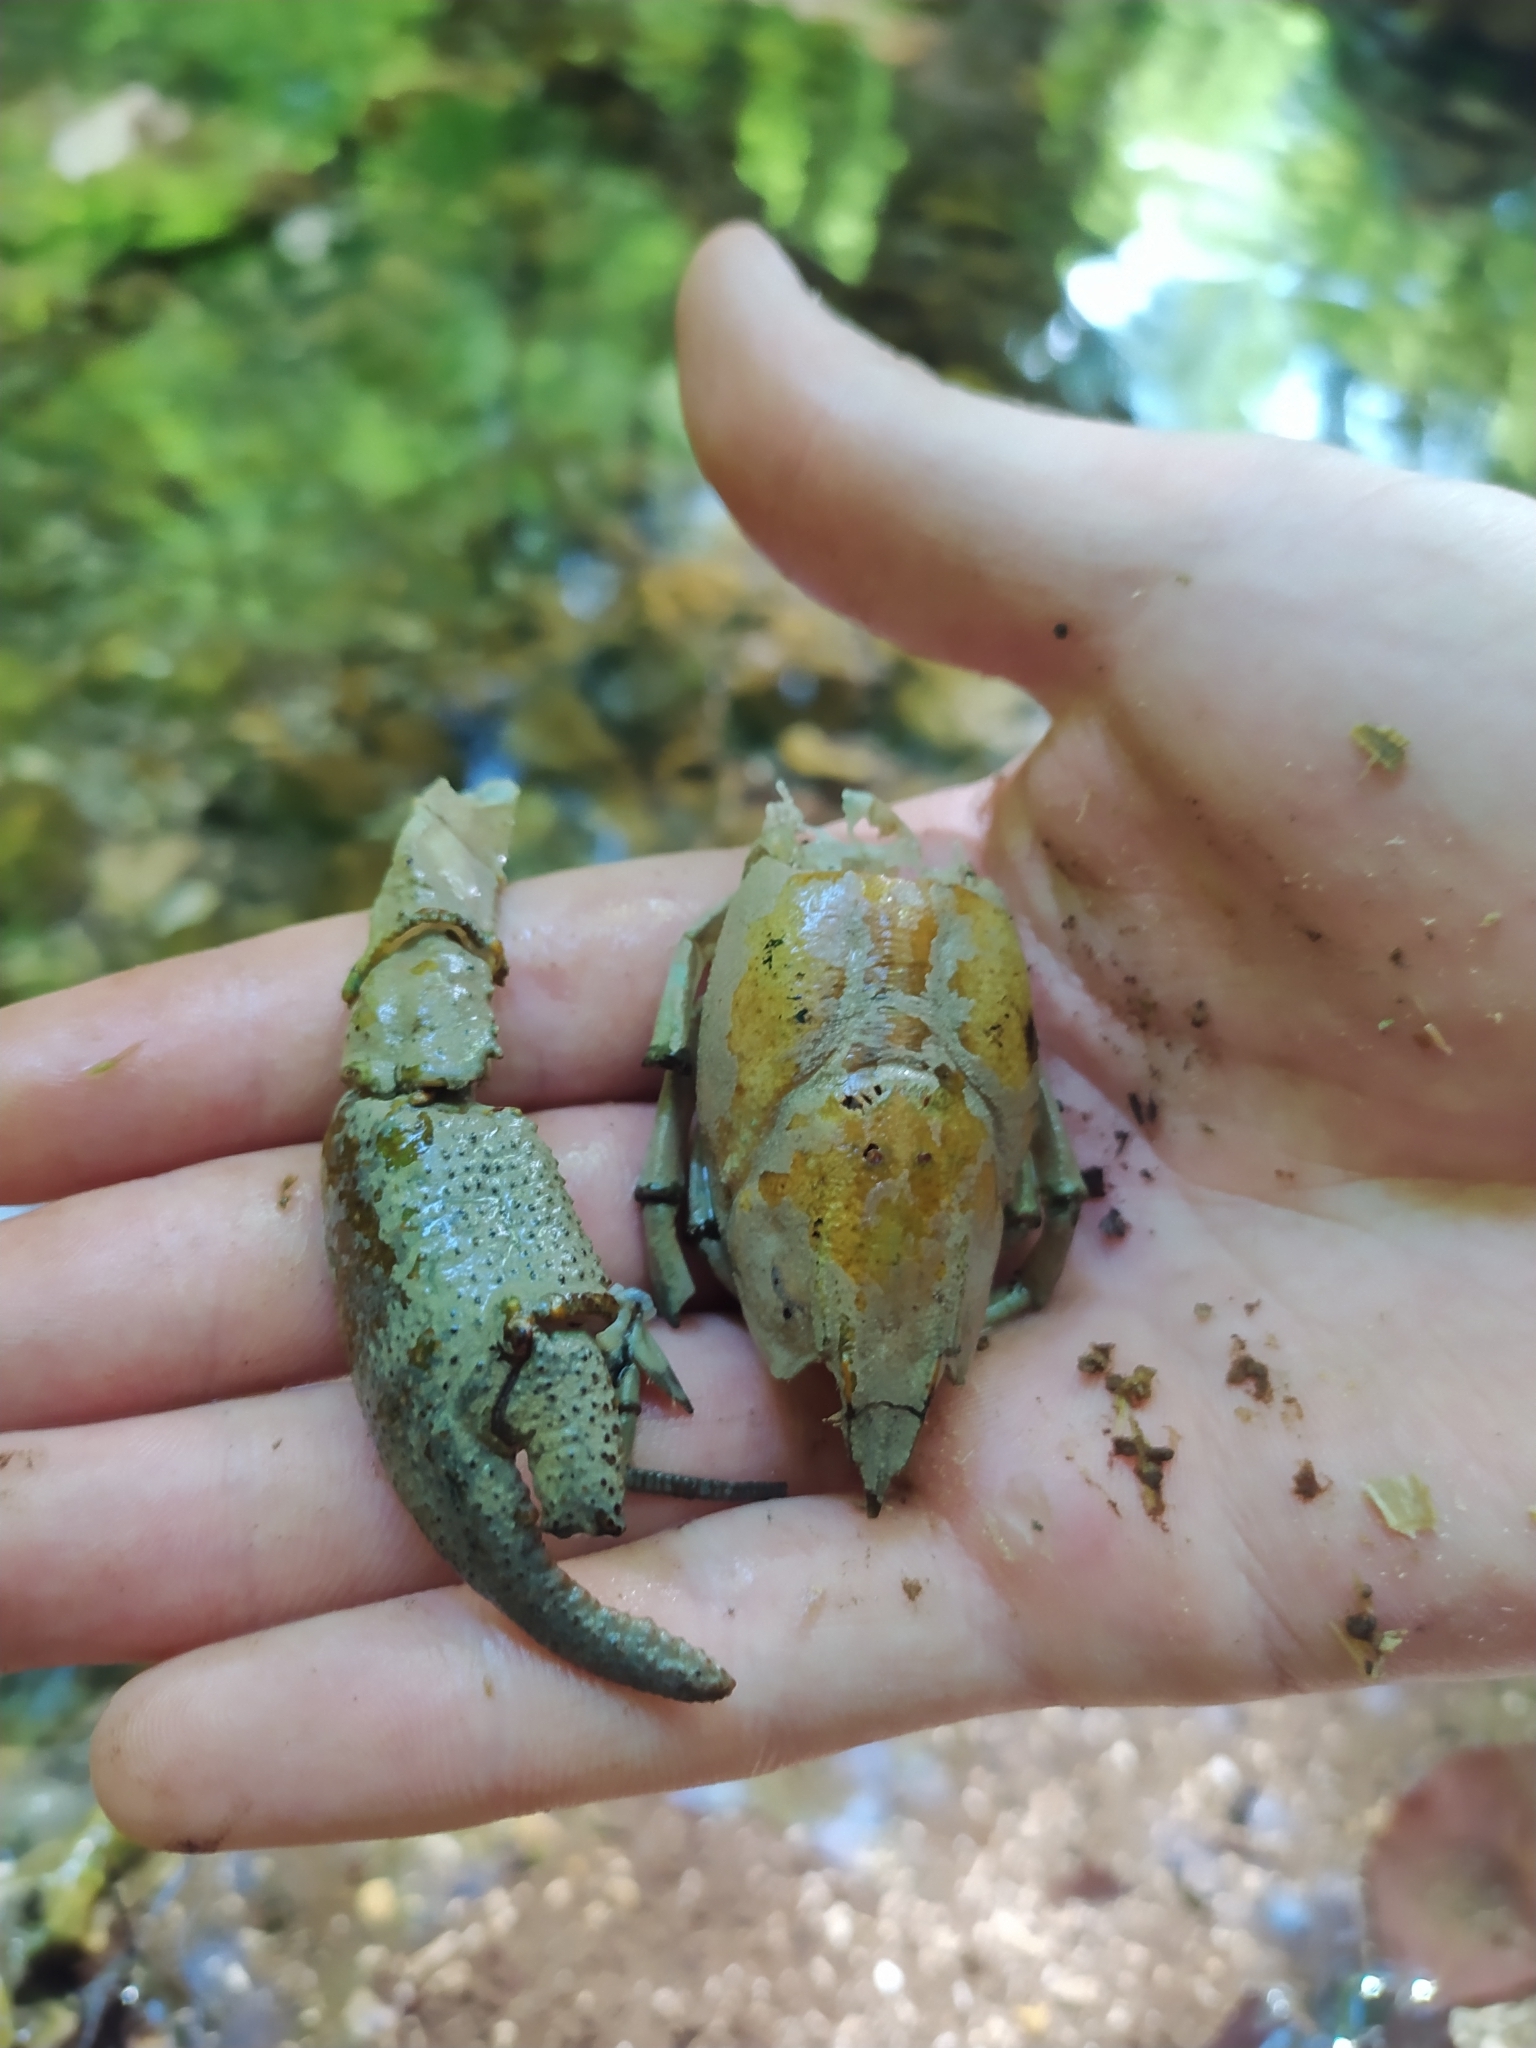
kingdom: Animalia
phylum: Arthropoda
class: Malacostraca
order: Decapoda
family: Astacidae
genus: Austropotamobius
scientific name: Austropotamobius pallipes
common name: White-clawed crayfish
